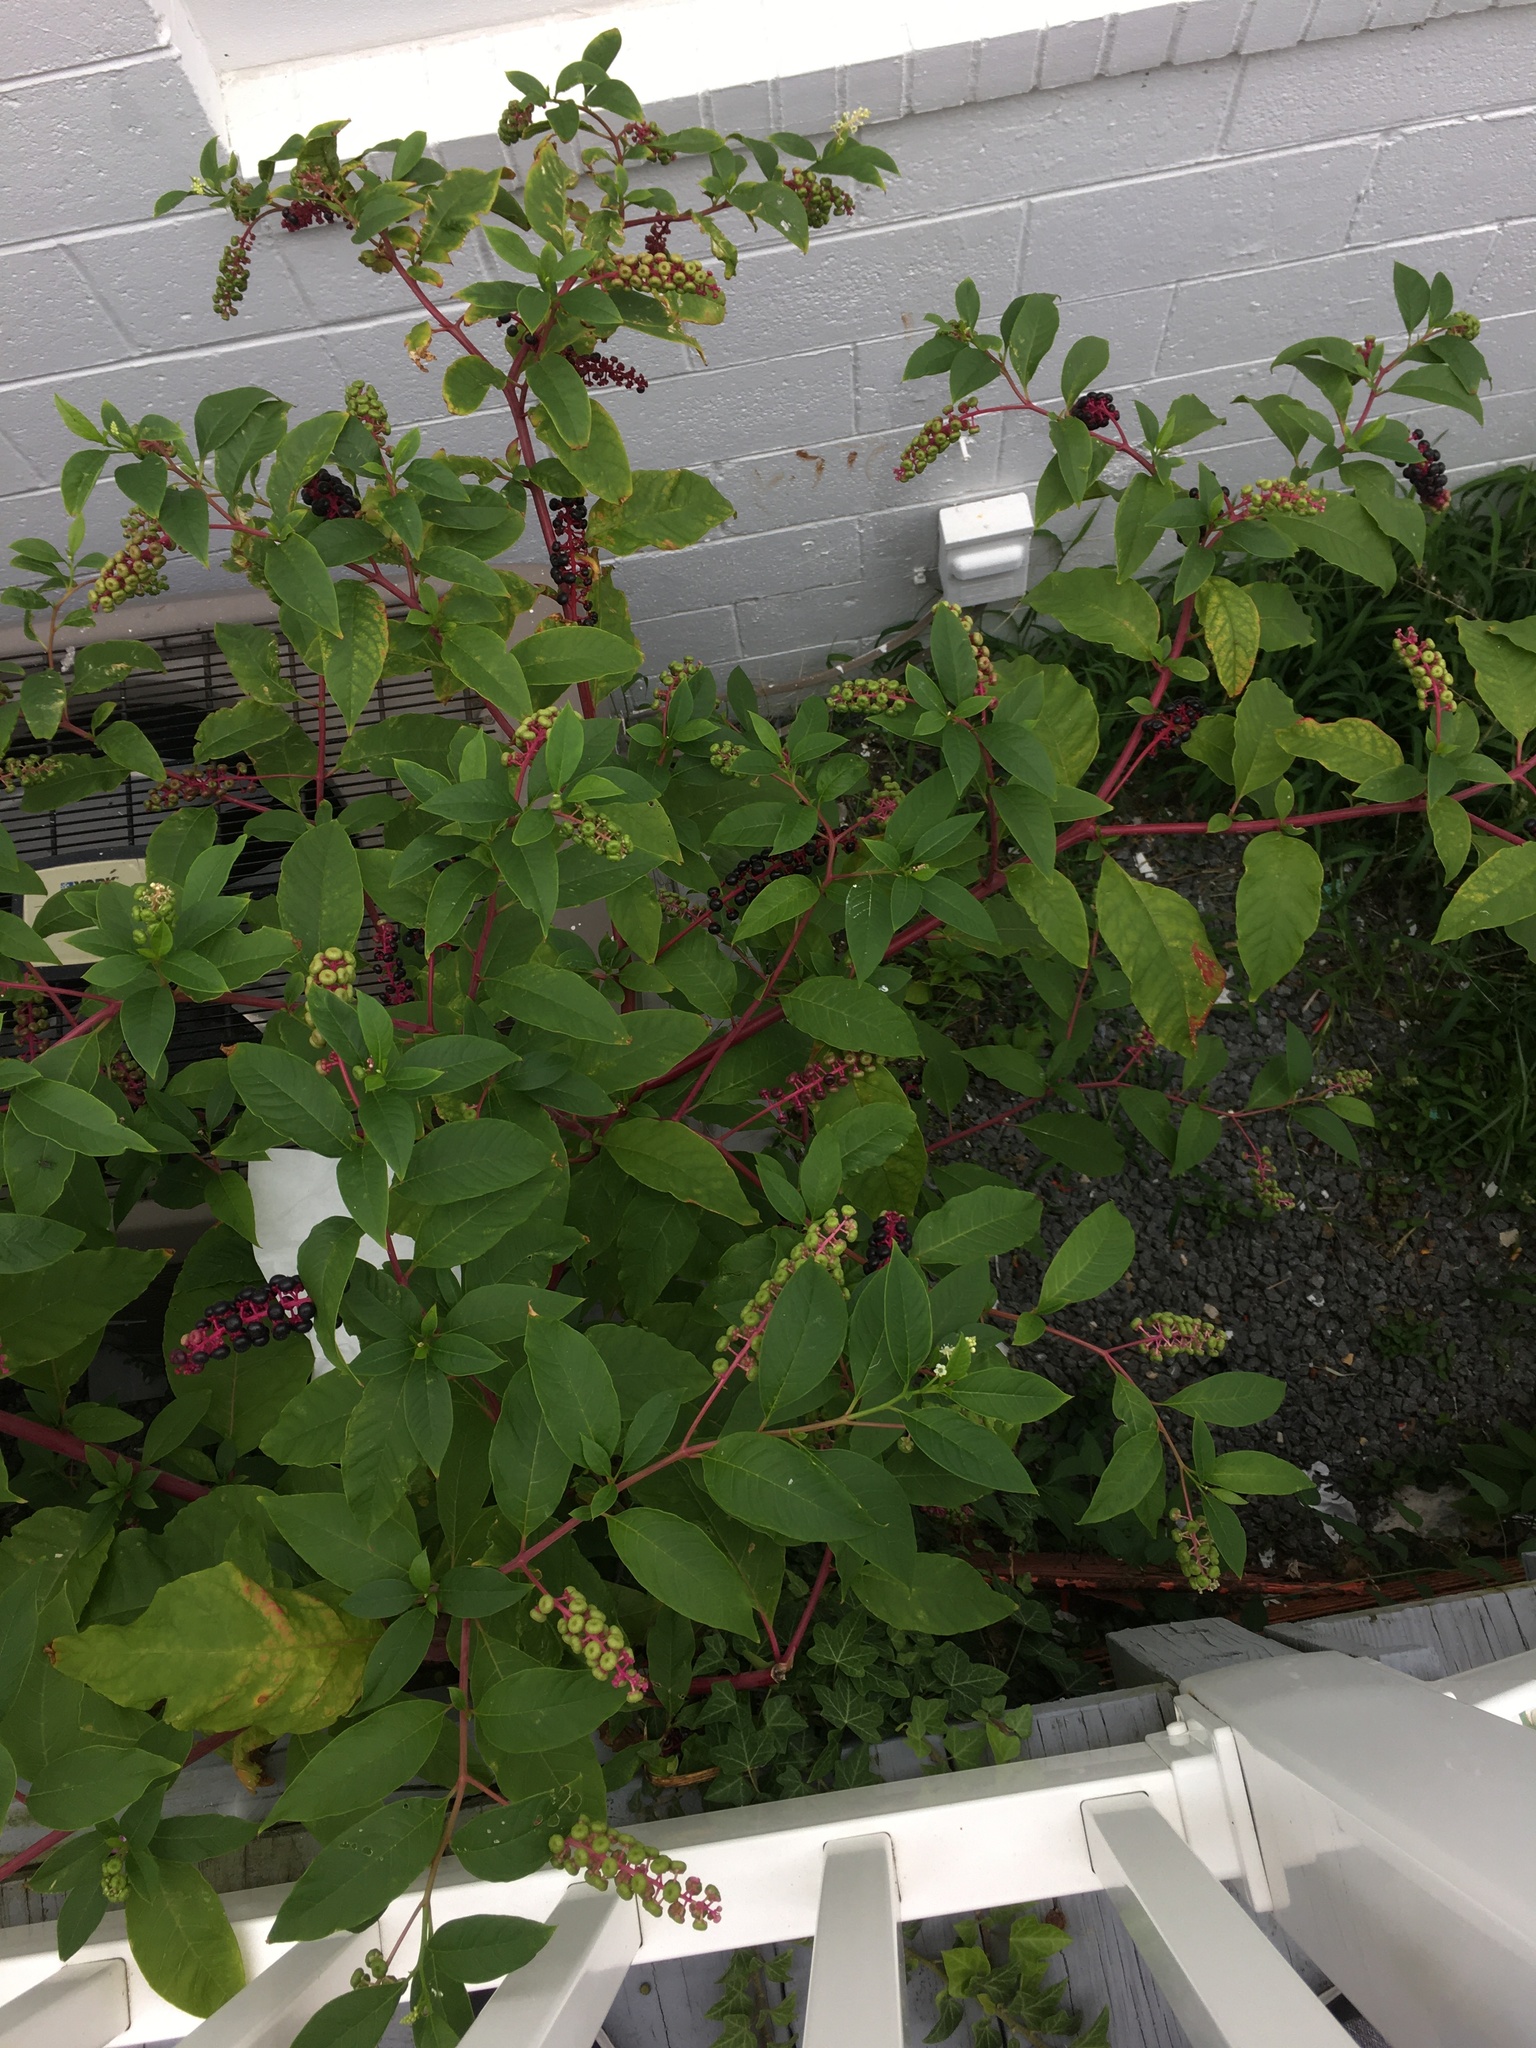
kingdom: Plantae
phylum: Tracheophyta
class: Magnoliopsida
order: Caryophyllales
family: Phytolaccaceae
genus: Phytolacca
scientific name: Phytolacca americana
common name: American pokeweed
